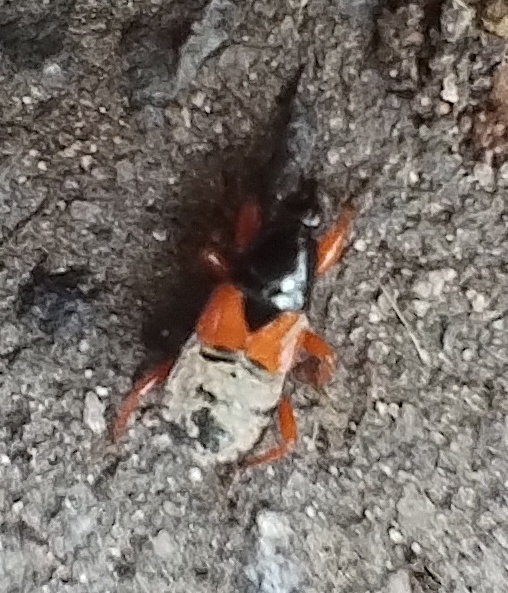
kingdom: Animalia
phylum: Arthropoda
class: Insecta
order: Hemiptera
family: Nabidae
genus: Prostemma
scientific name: Prostemma guttula
